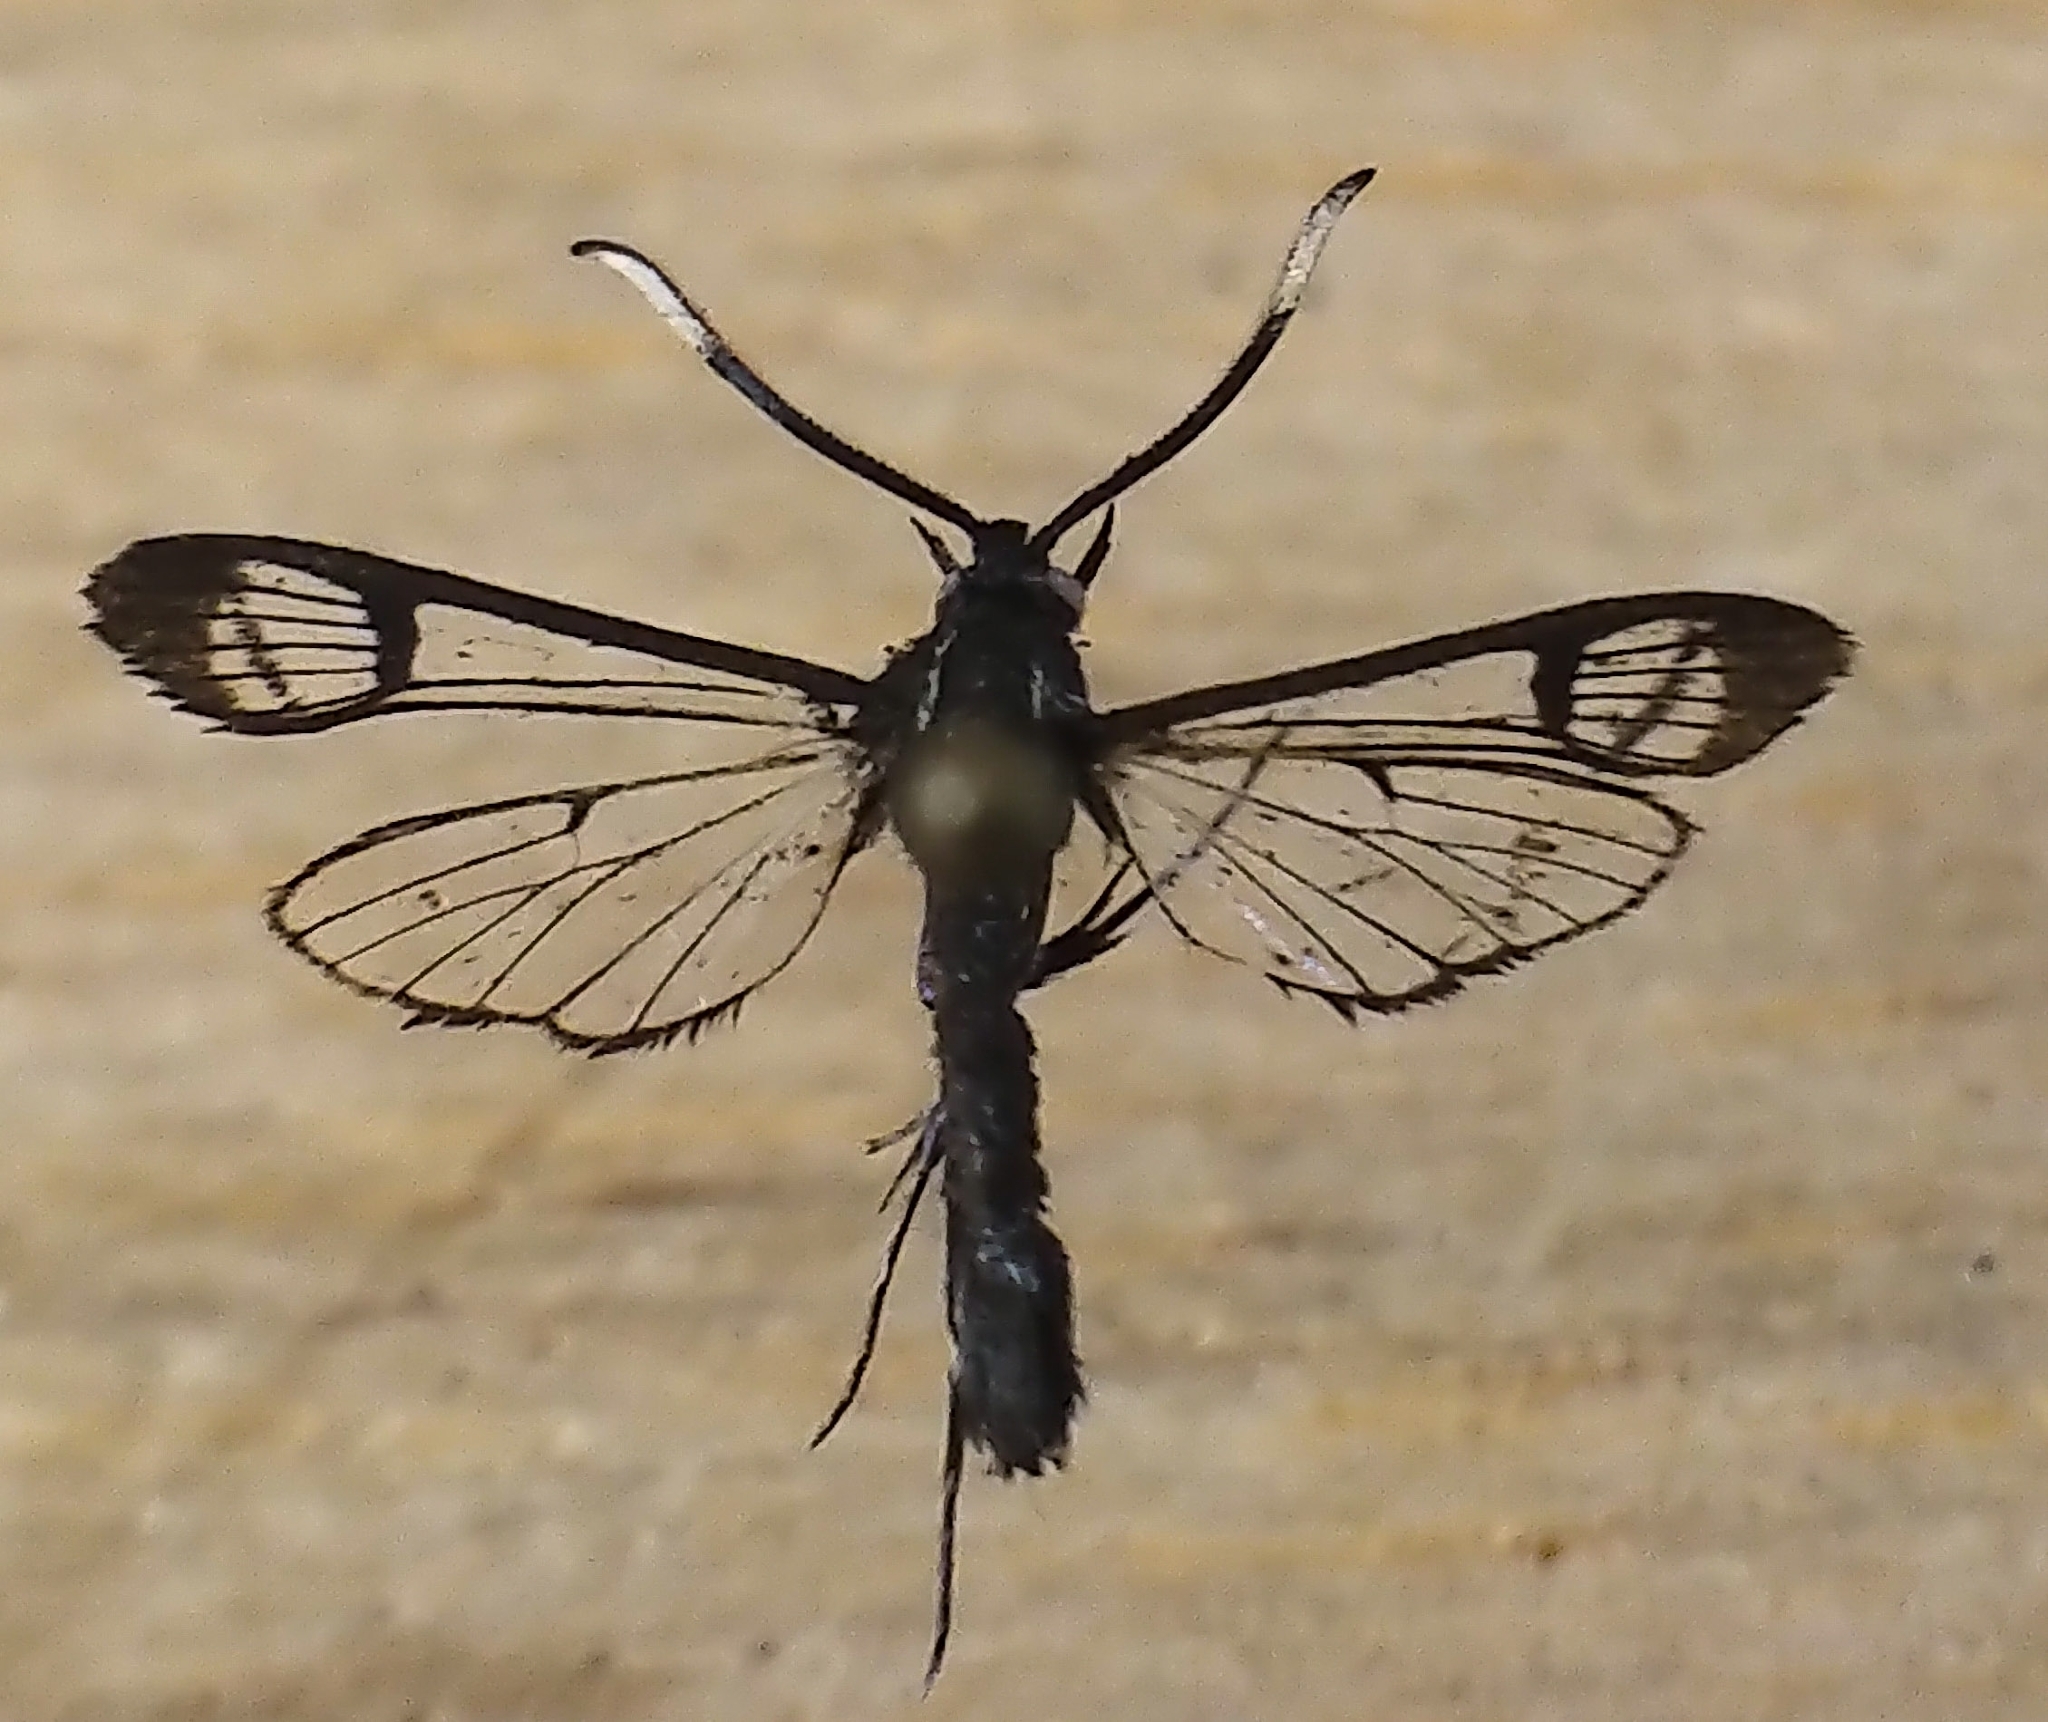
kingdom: Animalia
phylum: Arthropoda
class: Insecta
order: Lepidoptera
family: Sesiidae
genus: Synanthedon
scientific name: Synanthedon proxima
